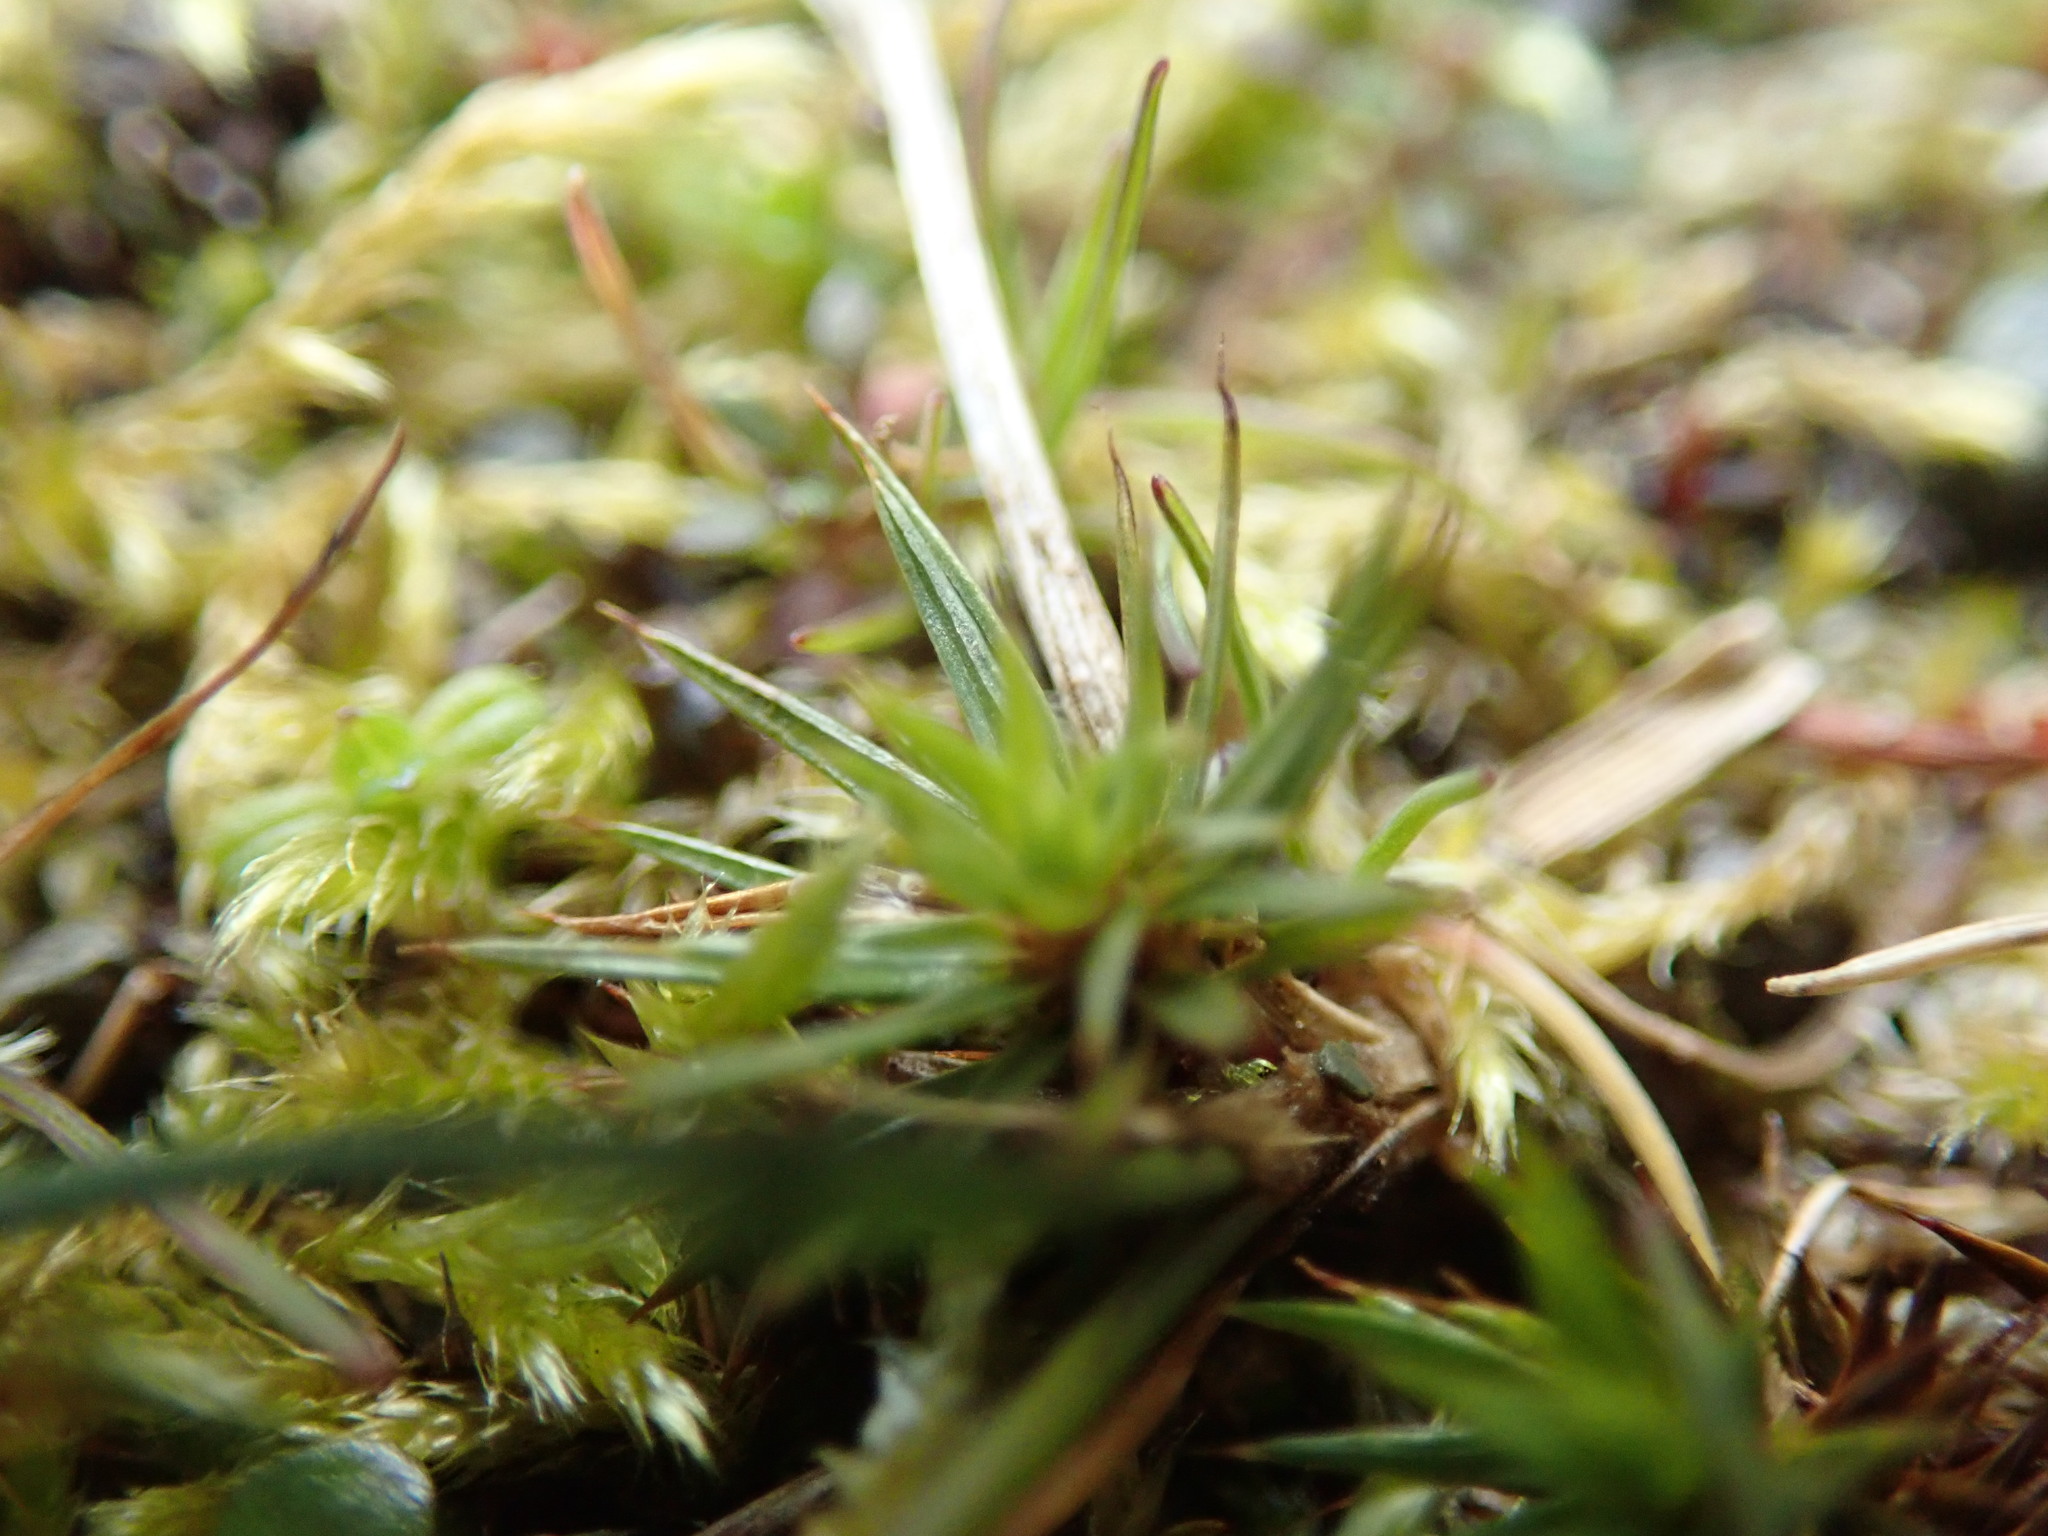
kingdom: Plantae
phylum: Bryophyta
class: Polytrichopsida
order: Polytrichales
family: Polytrichaceae
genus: Polytrichum
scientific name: Polytrichum juniperinum
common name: Juniper haircap moss
